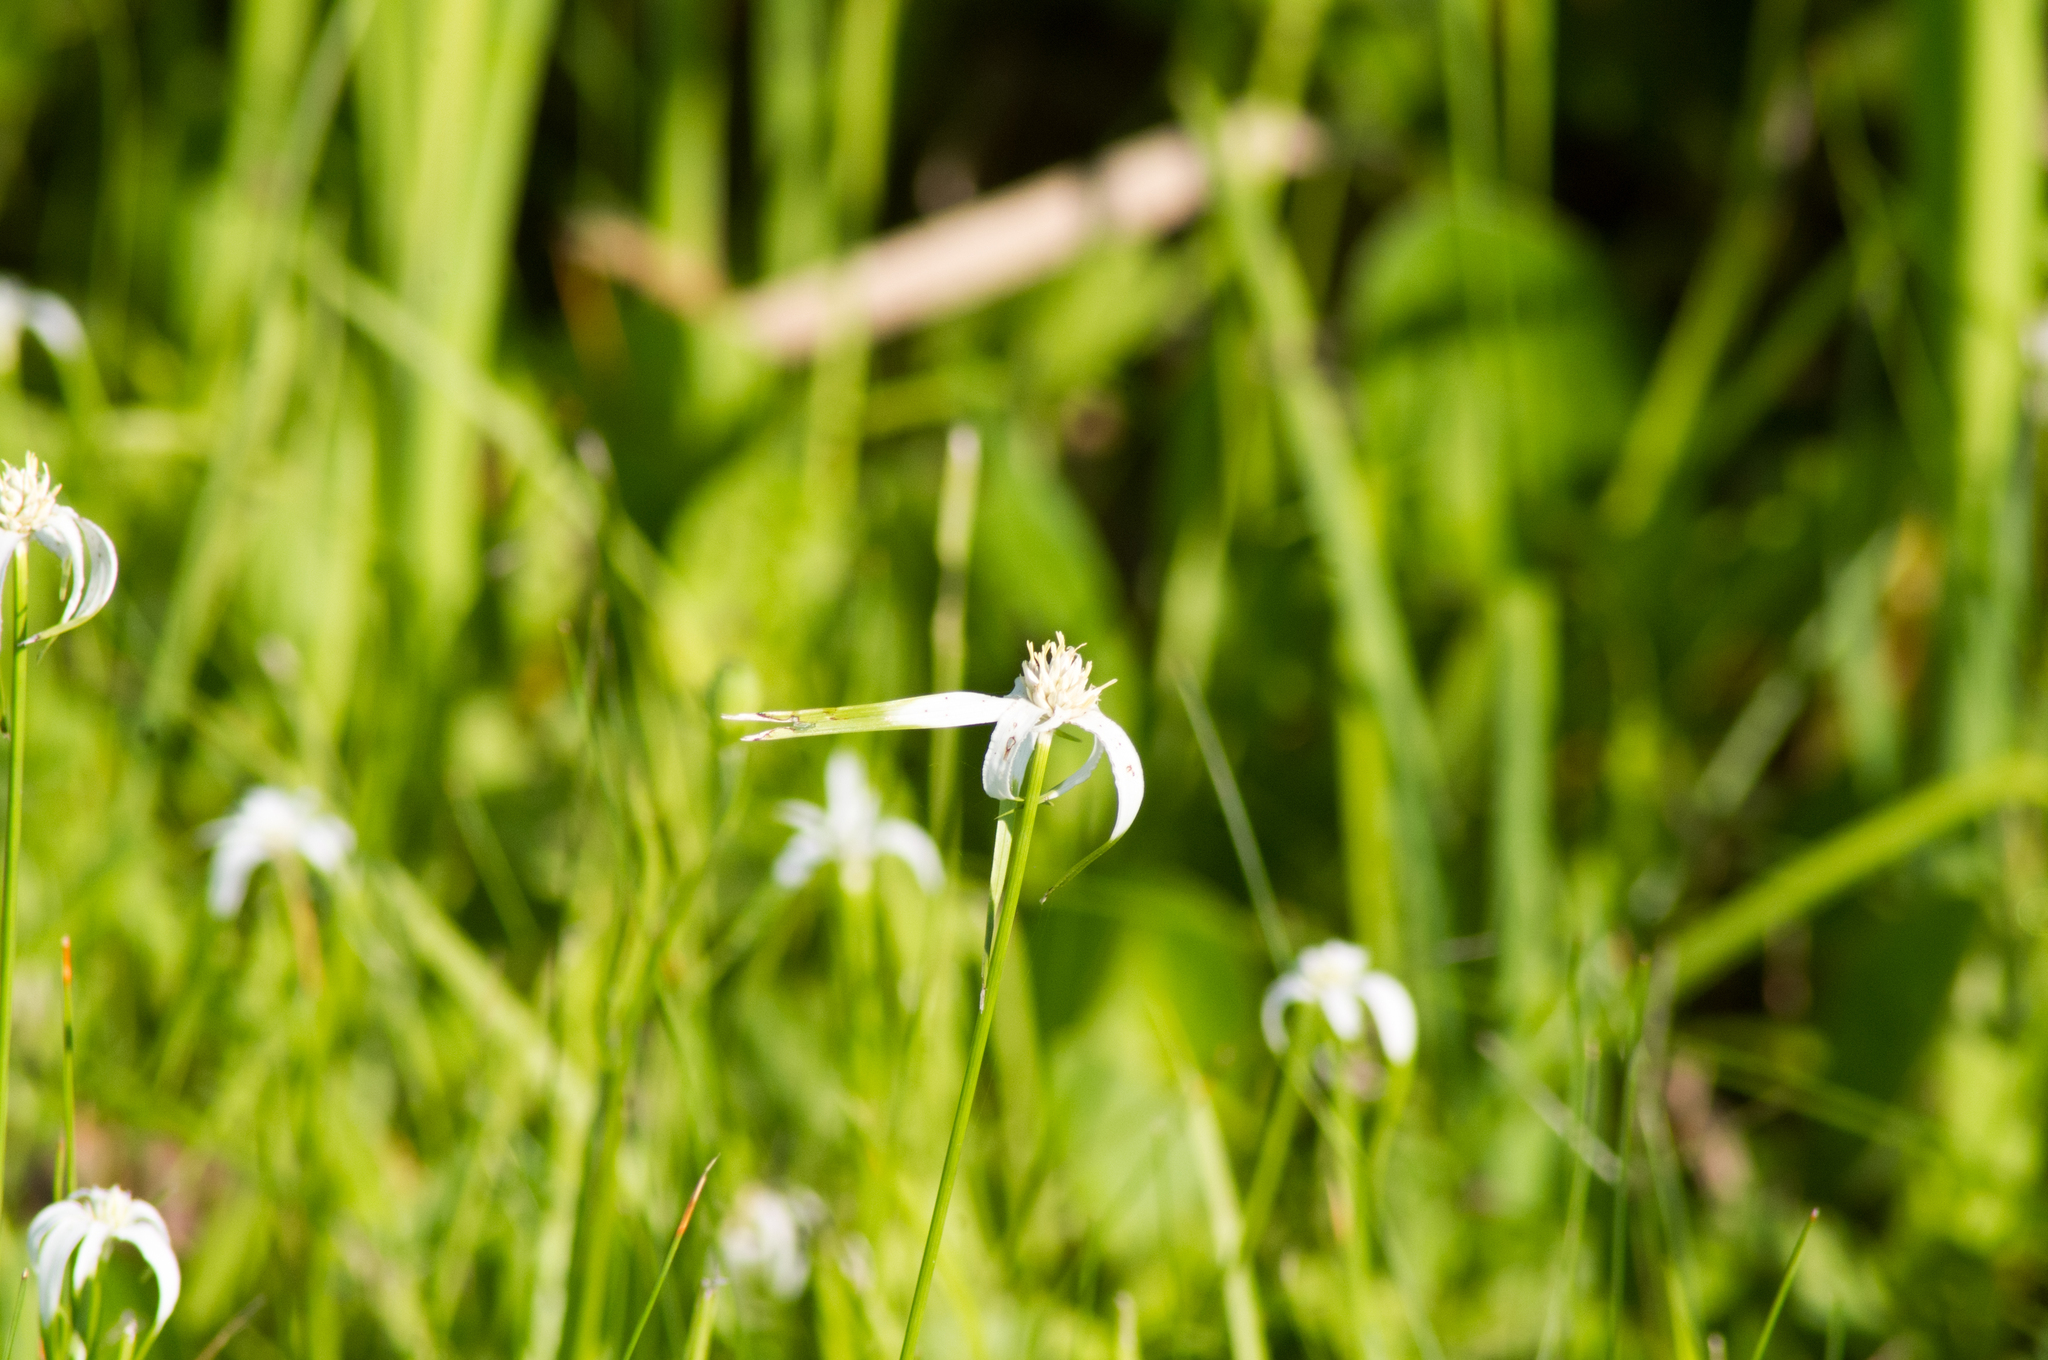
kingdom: Plantae
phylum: Tracheophyta
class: Liliopsida
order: Poales
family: Cyperaceae
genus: Rhynchospora
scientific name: Rhynchospora colorata
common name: Star sedge
